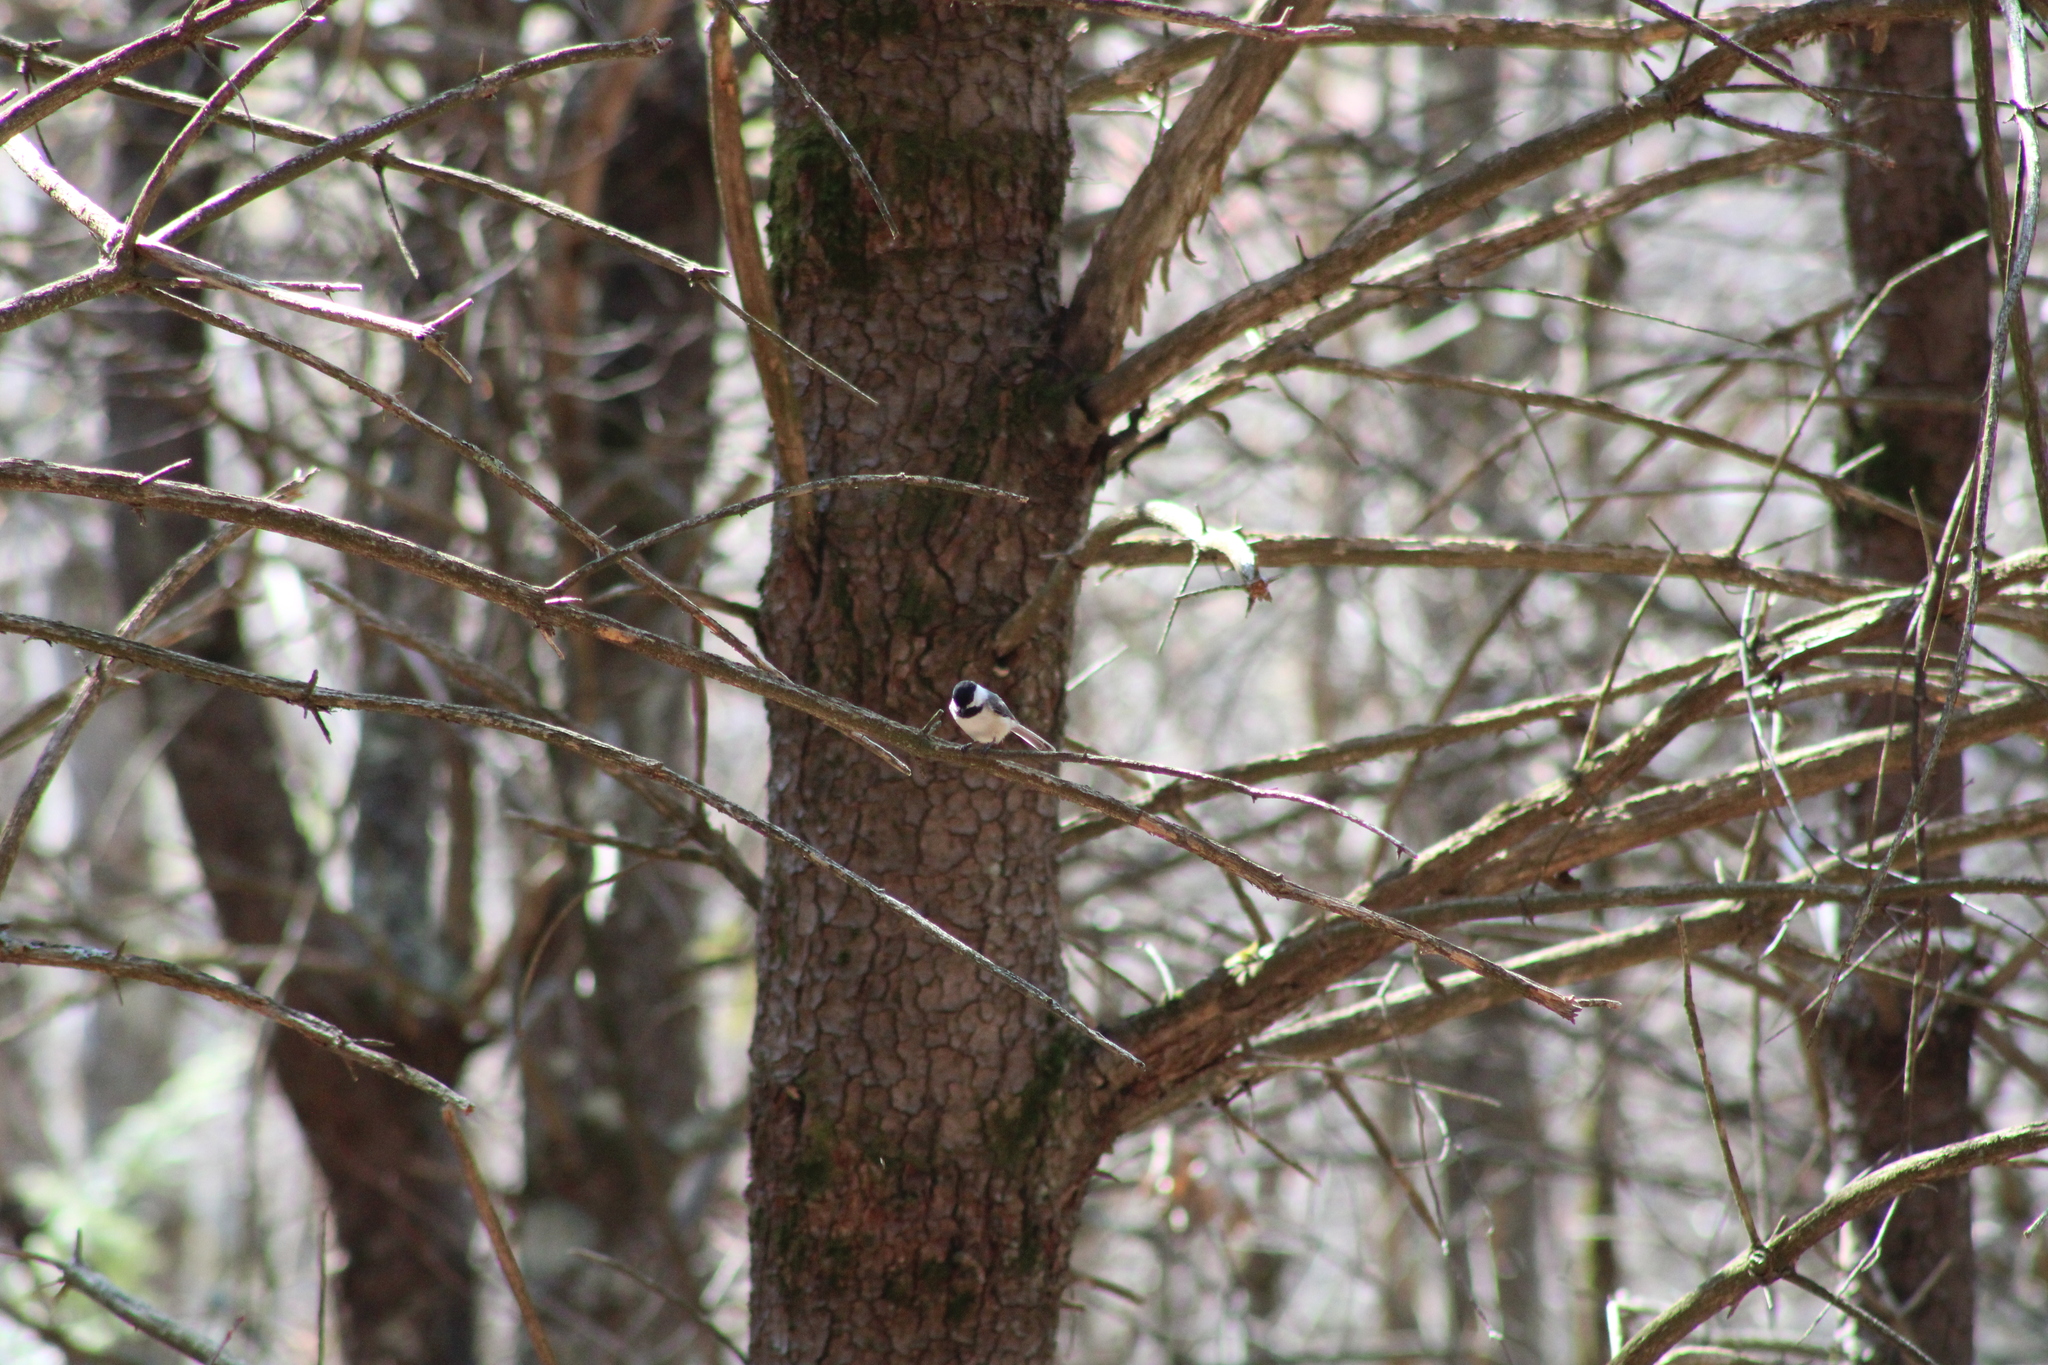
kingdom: Animalia
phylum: Chordata
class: Aves
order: Passeriformes
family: Paridae
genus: Poecile
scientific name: Poecile atricapillus
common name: Black-capped chickadee
